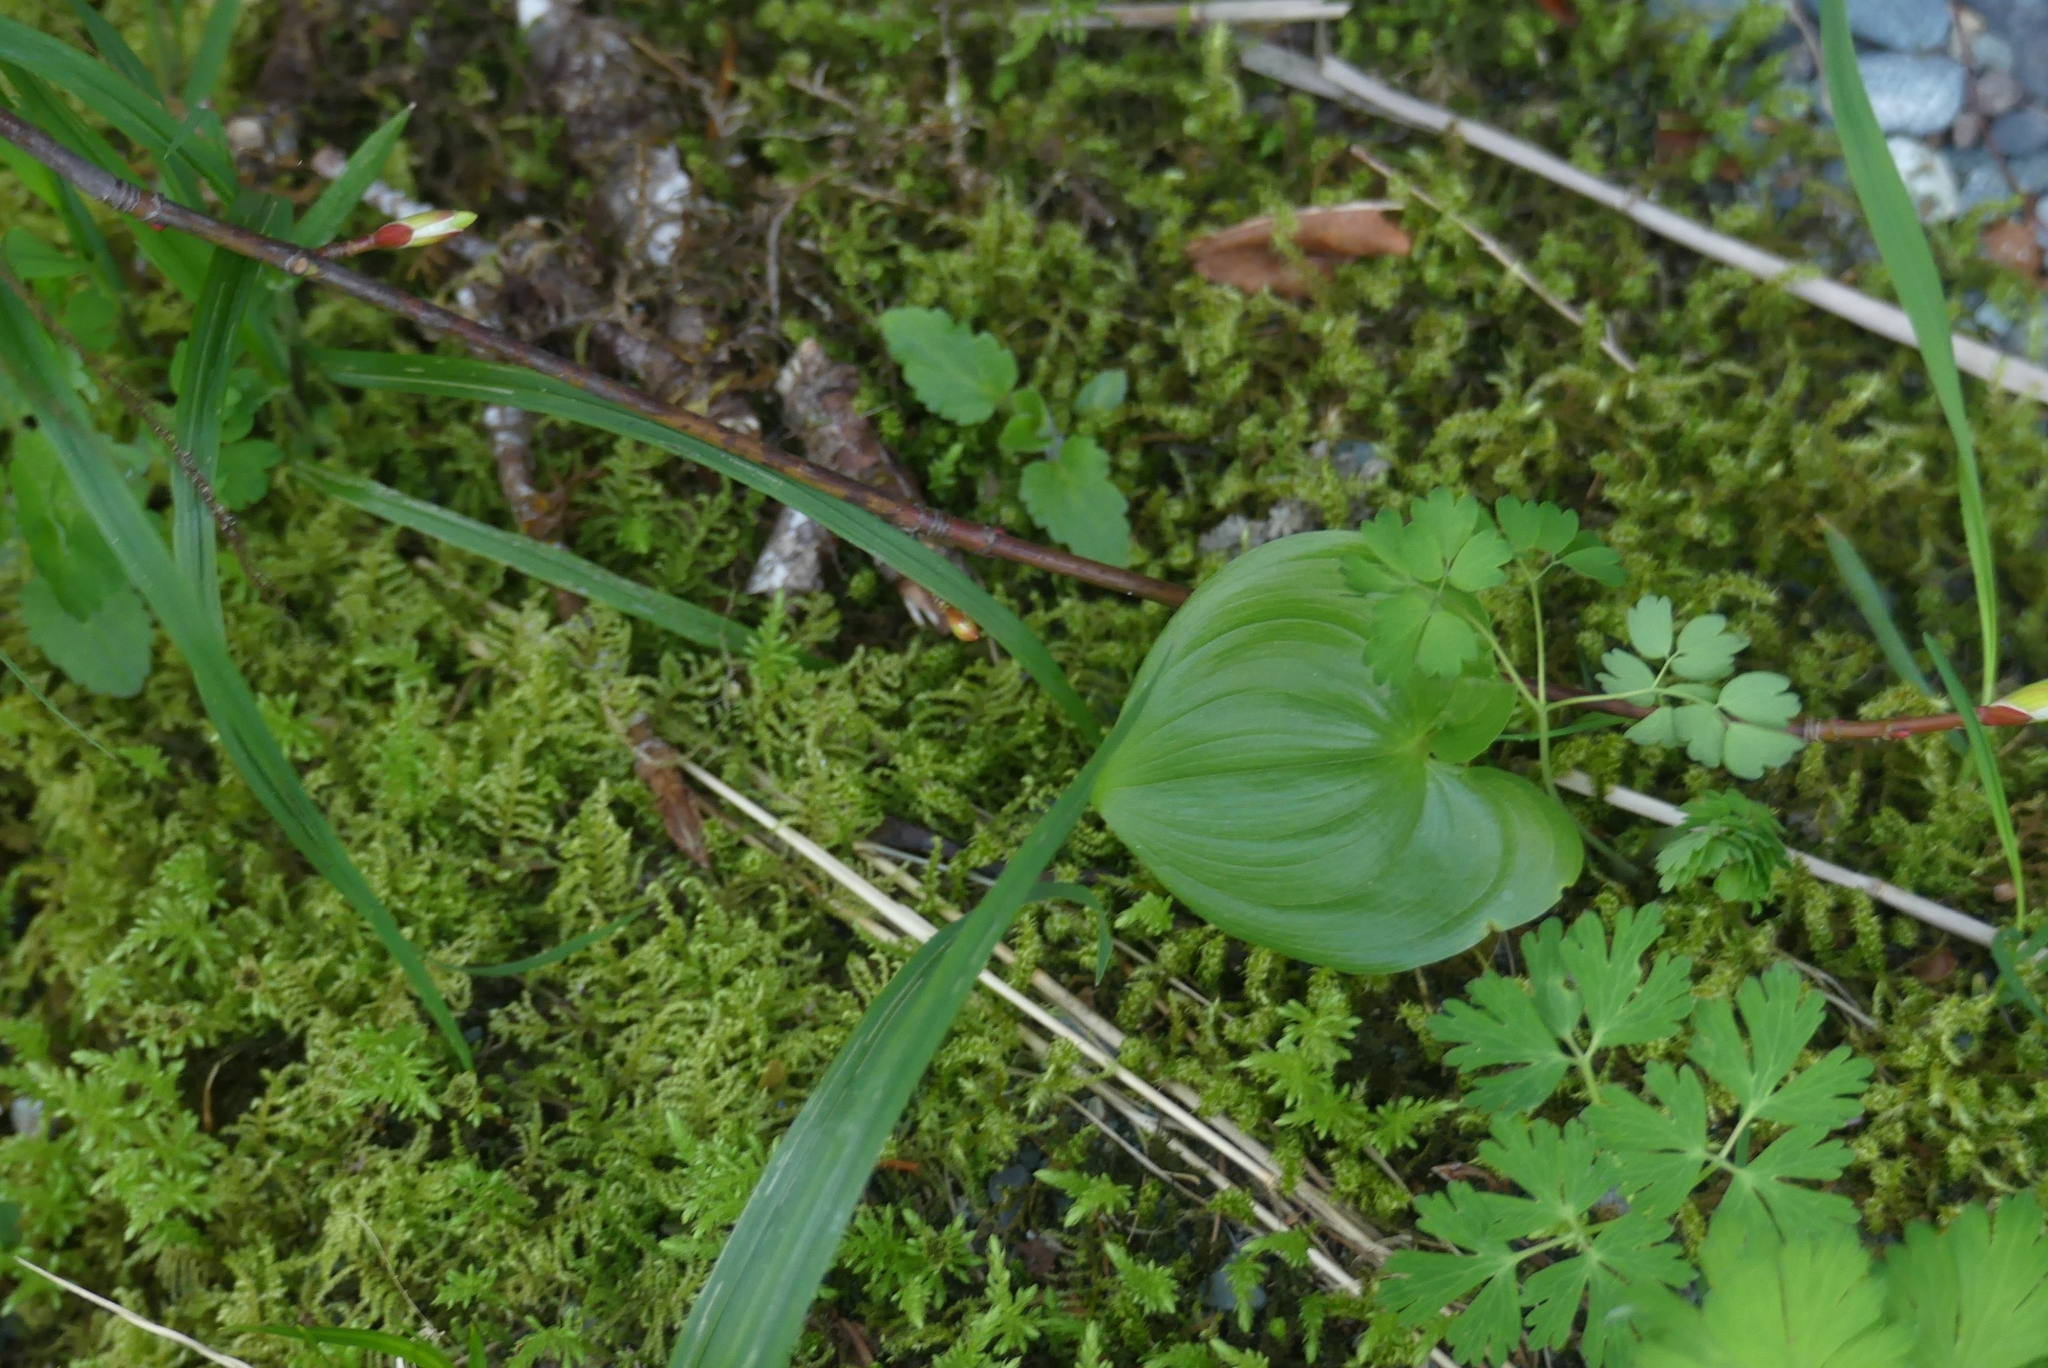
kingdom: Plantae
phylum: Tracheophyta
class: Liliopsida
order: Asparagales
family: Asparagaceae
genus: Maianthemum
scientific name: Maianthemum dilatatum
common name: False lily-of-the-valley
